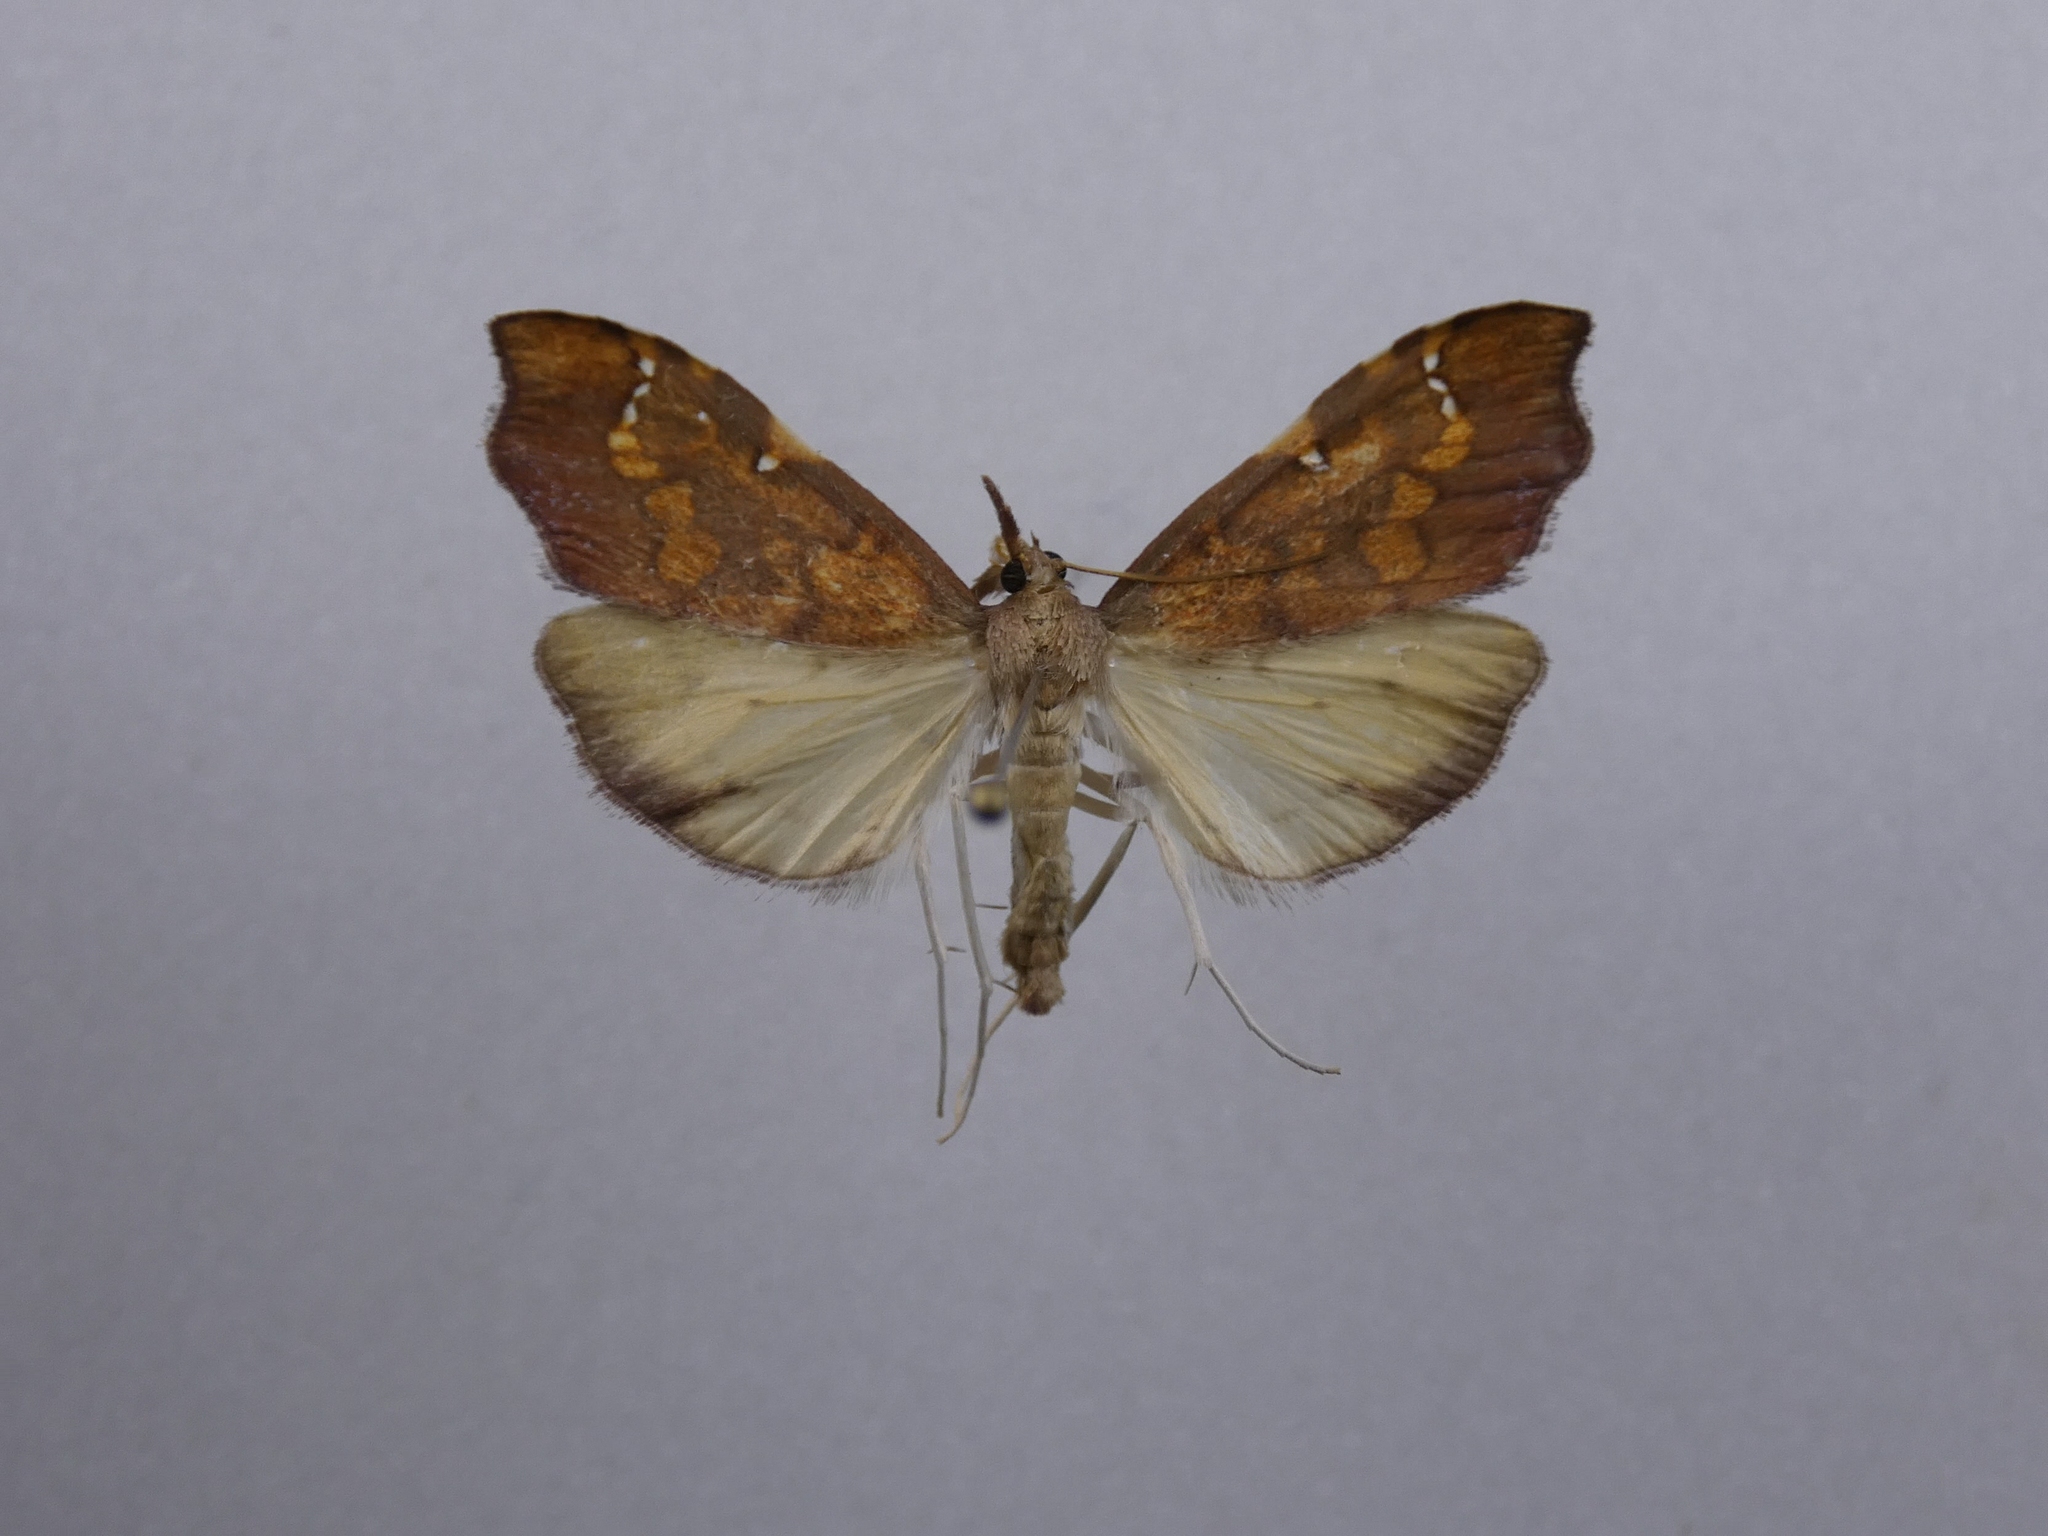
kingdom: Animalia
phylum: Arthropoda
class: Insecta
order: Lepidoptera
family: Crambidae
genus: Deana
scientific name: Deana hybreasalis
